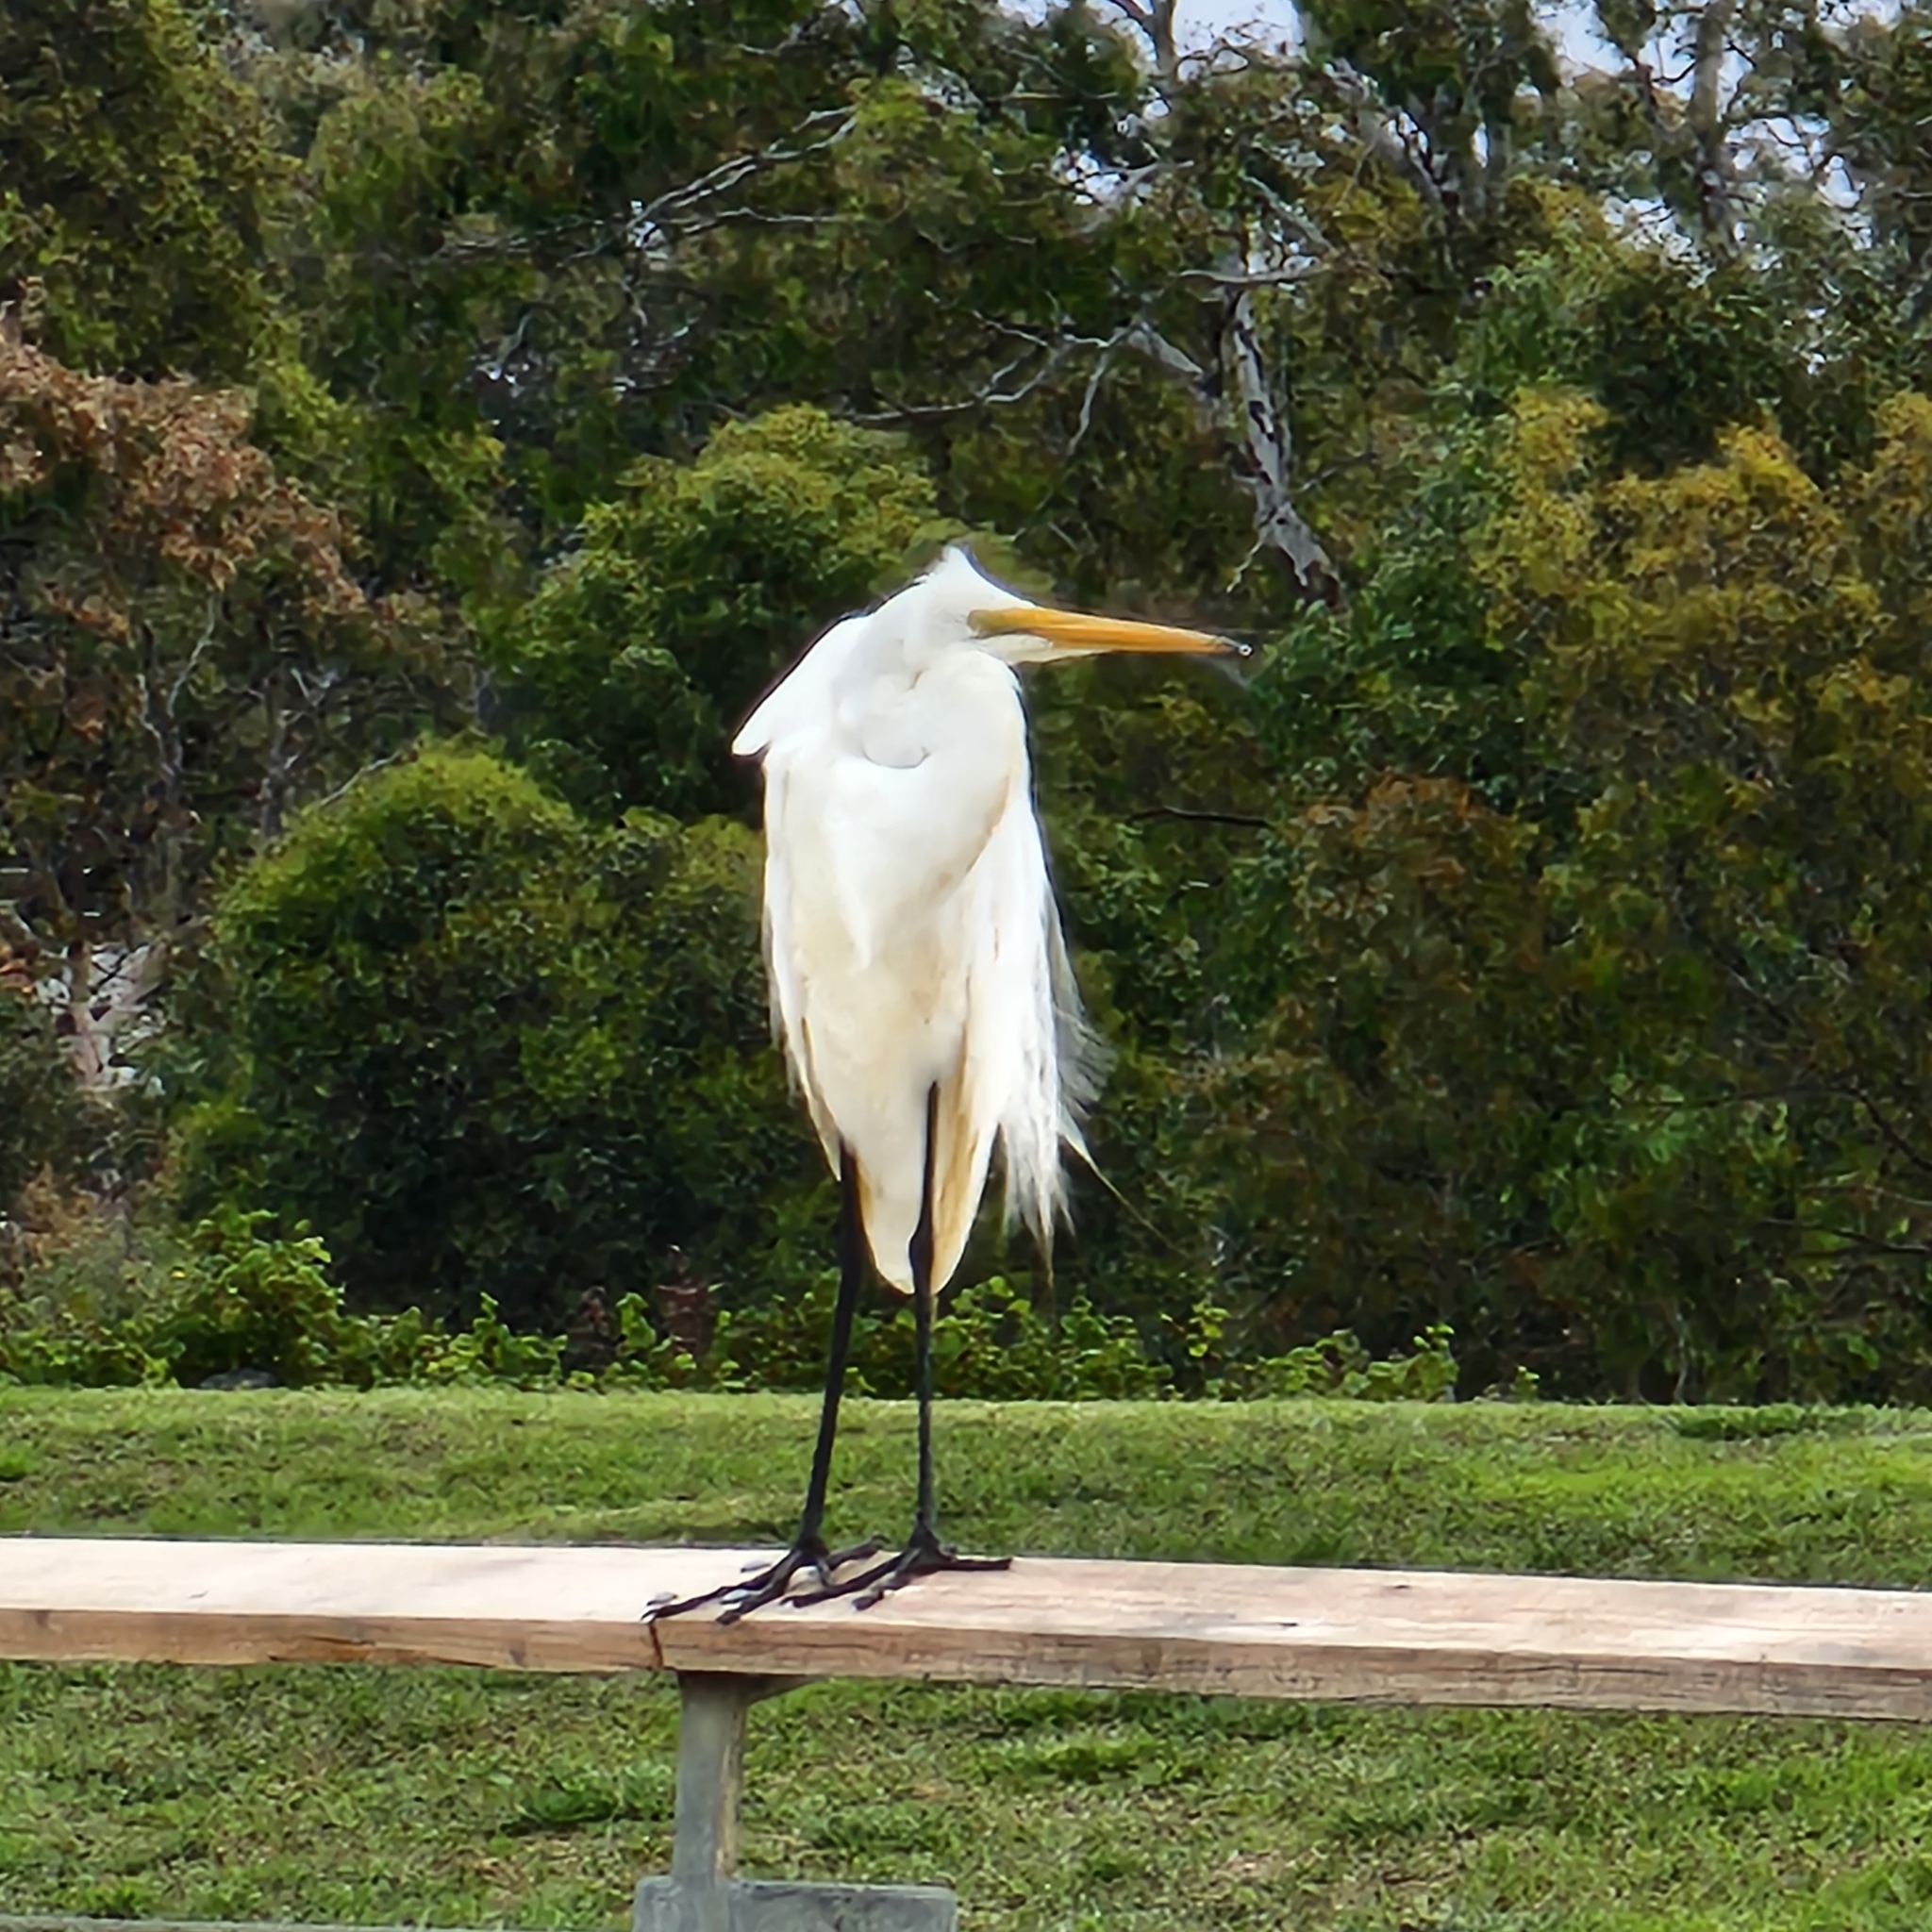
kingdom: Animalia
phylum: Chordata
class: Aves
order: Pelecaniformes
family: Ardeidae
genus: Ardea
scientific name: Ardea modesta
